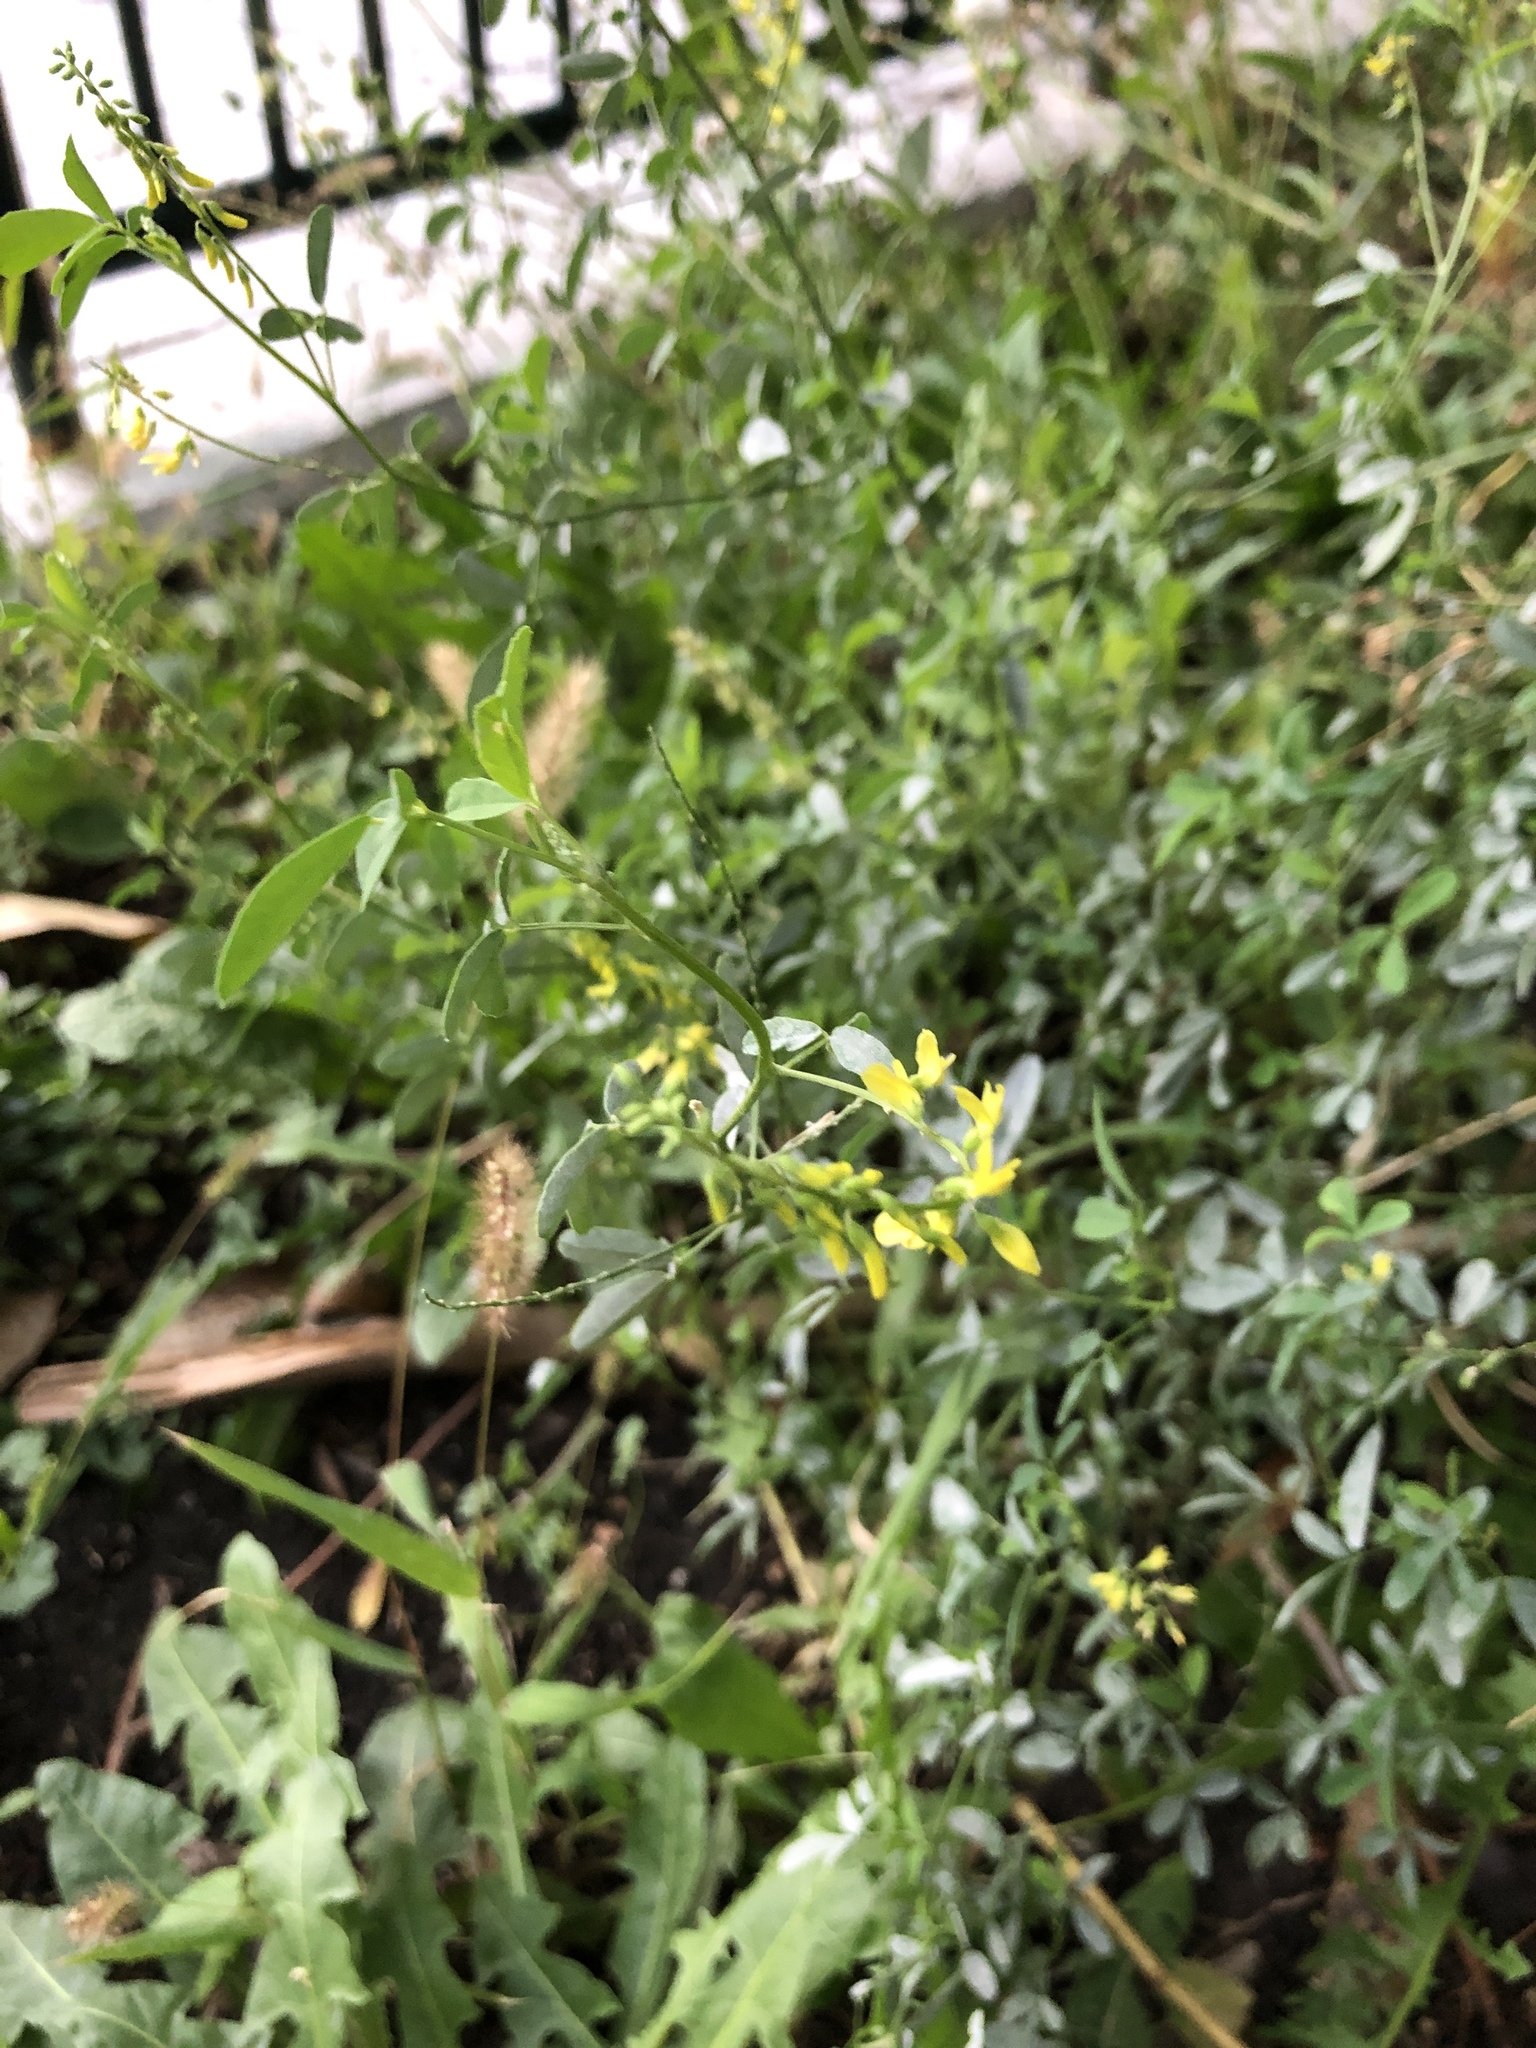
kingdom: Plantae
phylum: Tracheophyta
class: Magnoliopsida
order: Fabales
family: Fabaceae
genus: Melilotus
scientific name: Melilotus officinalis
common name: Sweetclover
